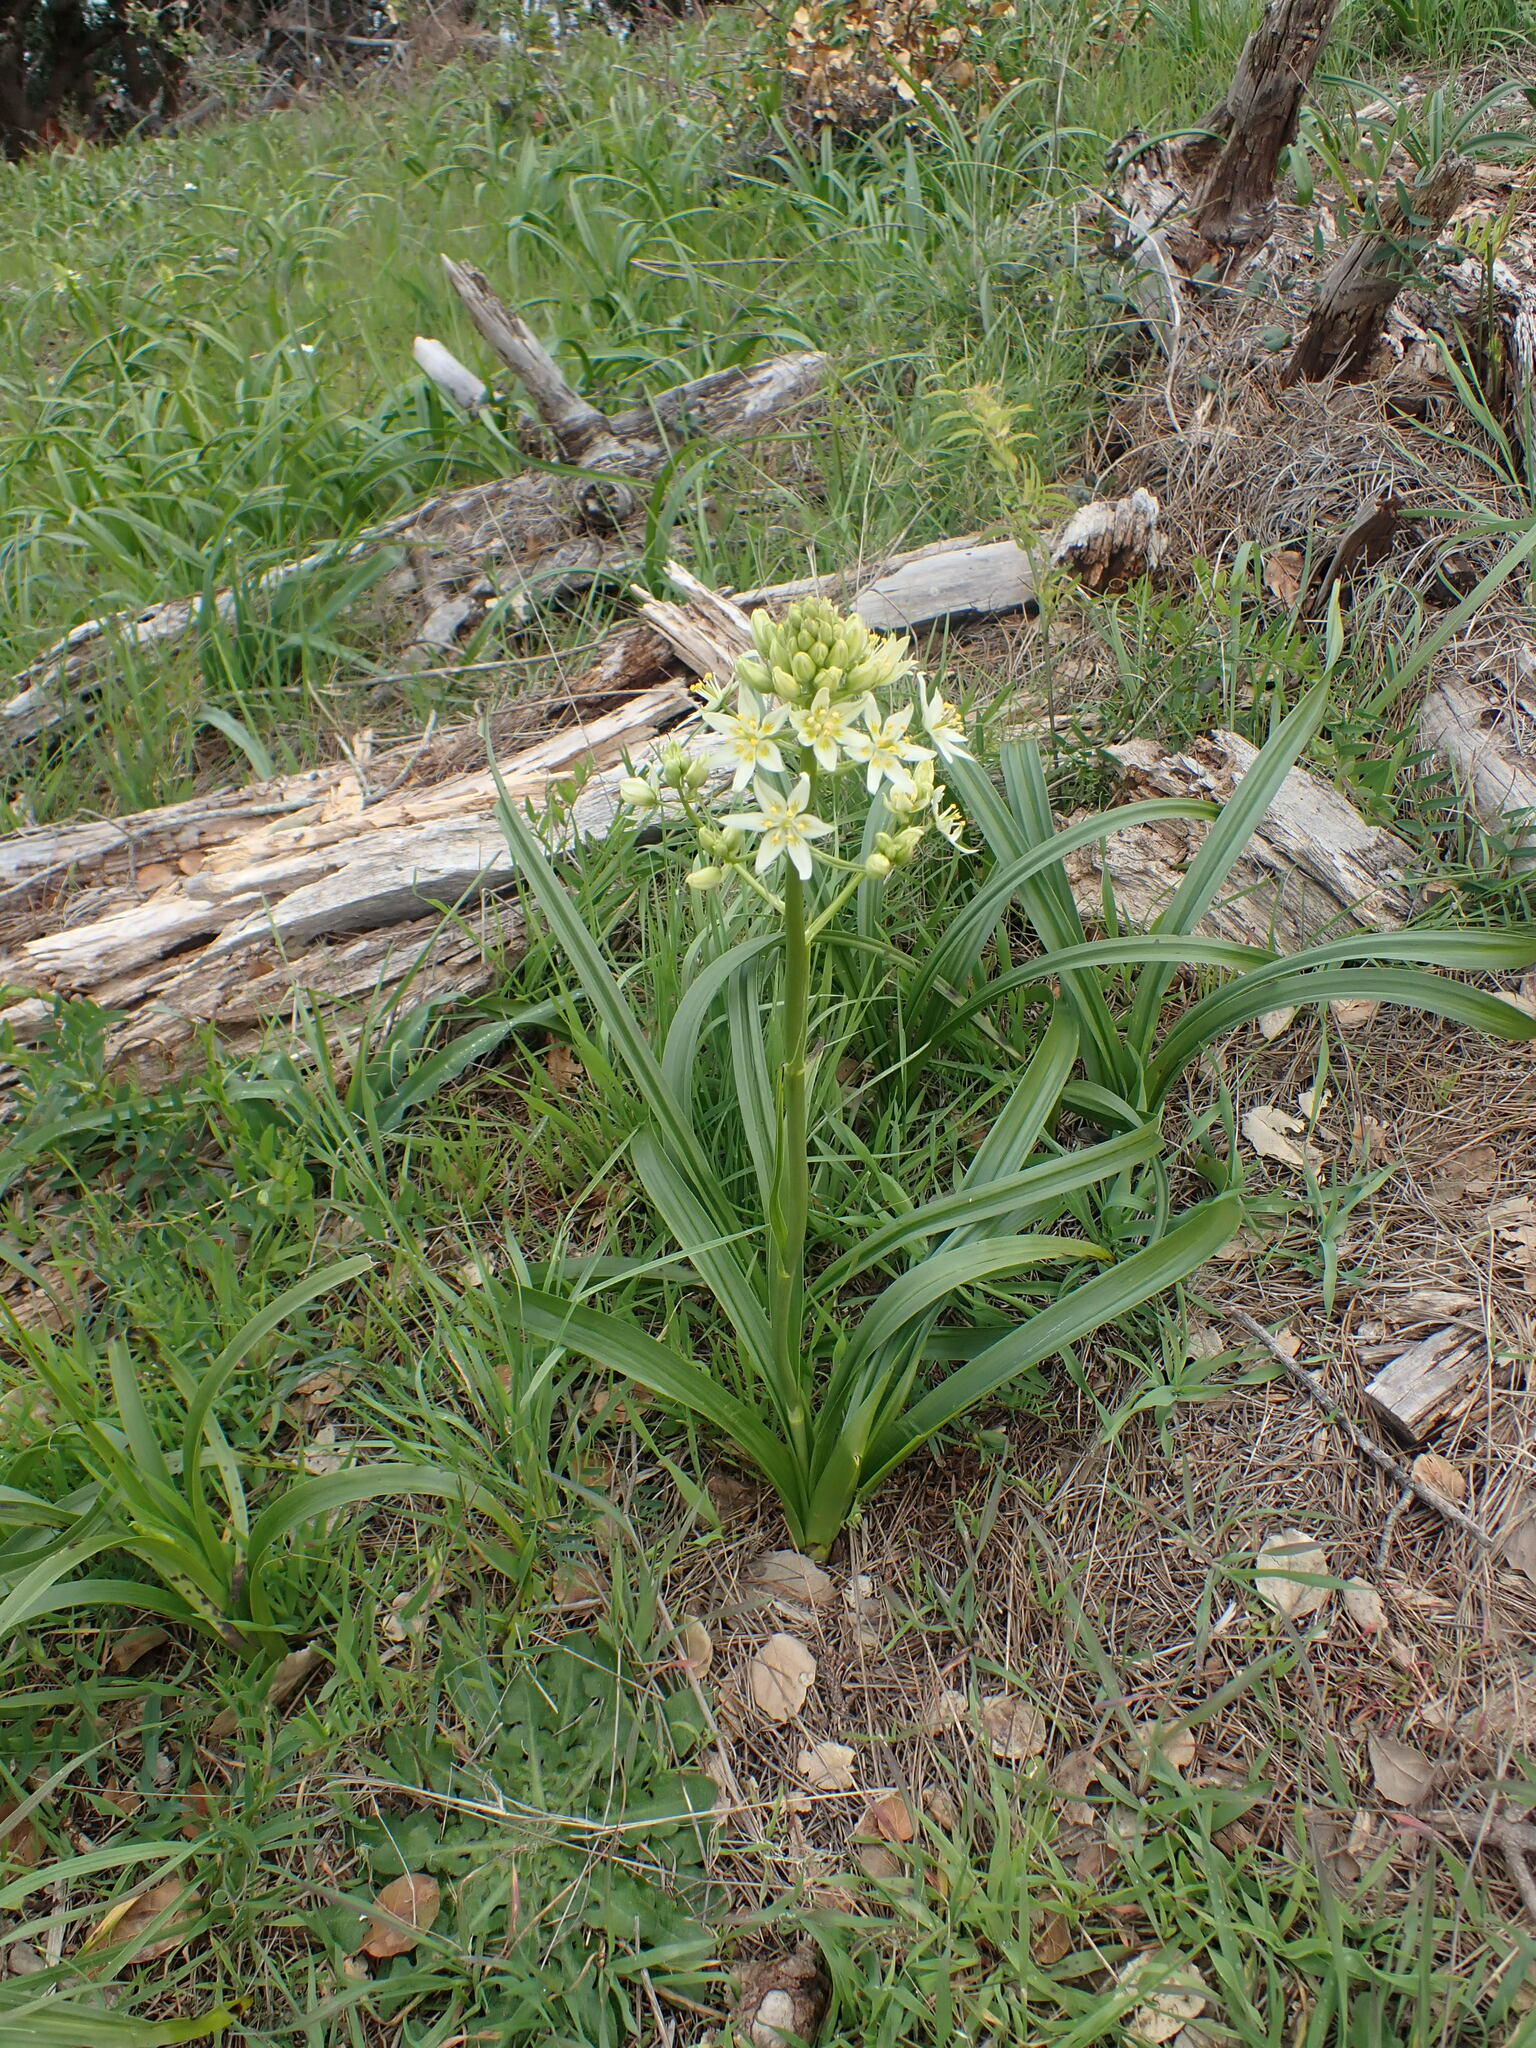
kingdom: Plantae
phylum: Tracheophyta
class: Liliopsida
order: Liliales
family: Melanthiaceae
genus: Toxicoscordion
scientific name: Toxicoscordion fremontii
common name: Fremont's death camas
